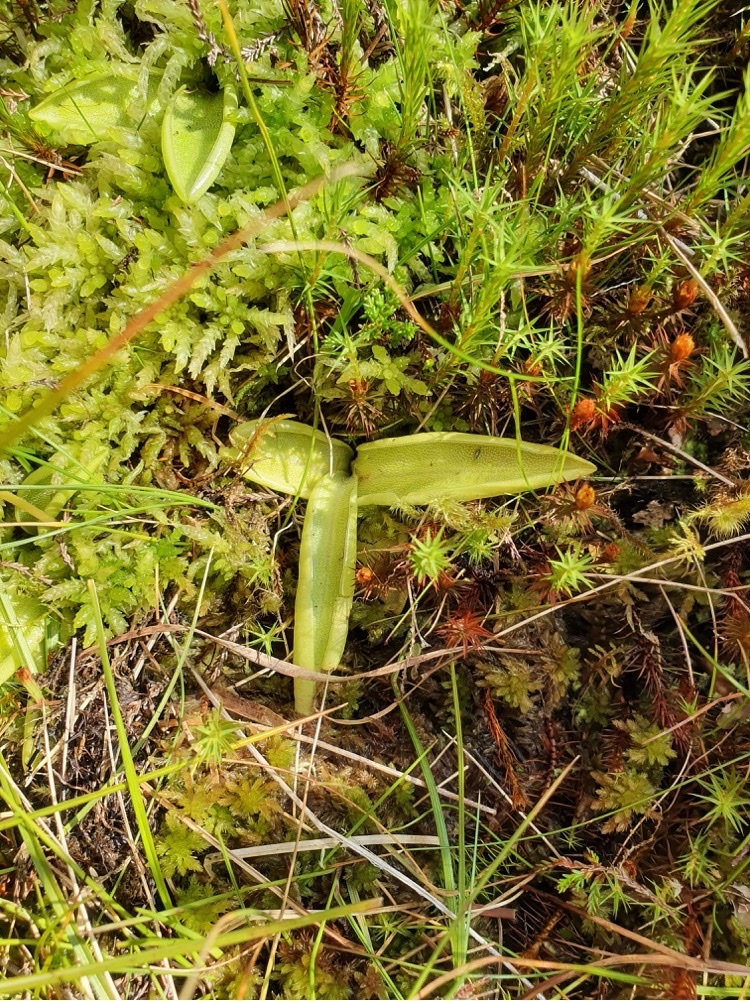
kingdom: Plantae
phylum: Tracheophyta
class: Magnoliopsida
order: Lamiales
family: Lentibulariaceae
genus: Pinguicula
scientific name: Pinguicula vulgaris
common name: Common butterwort
